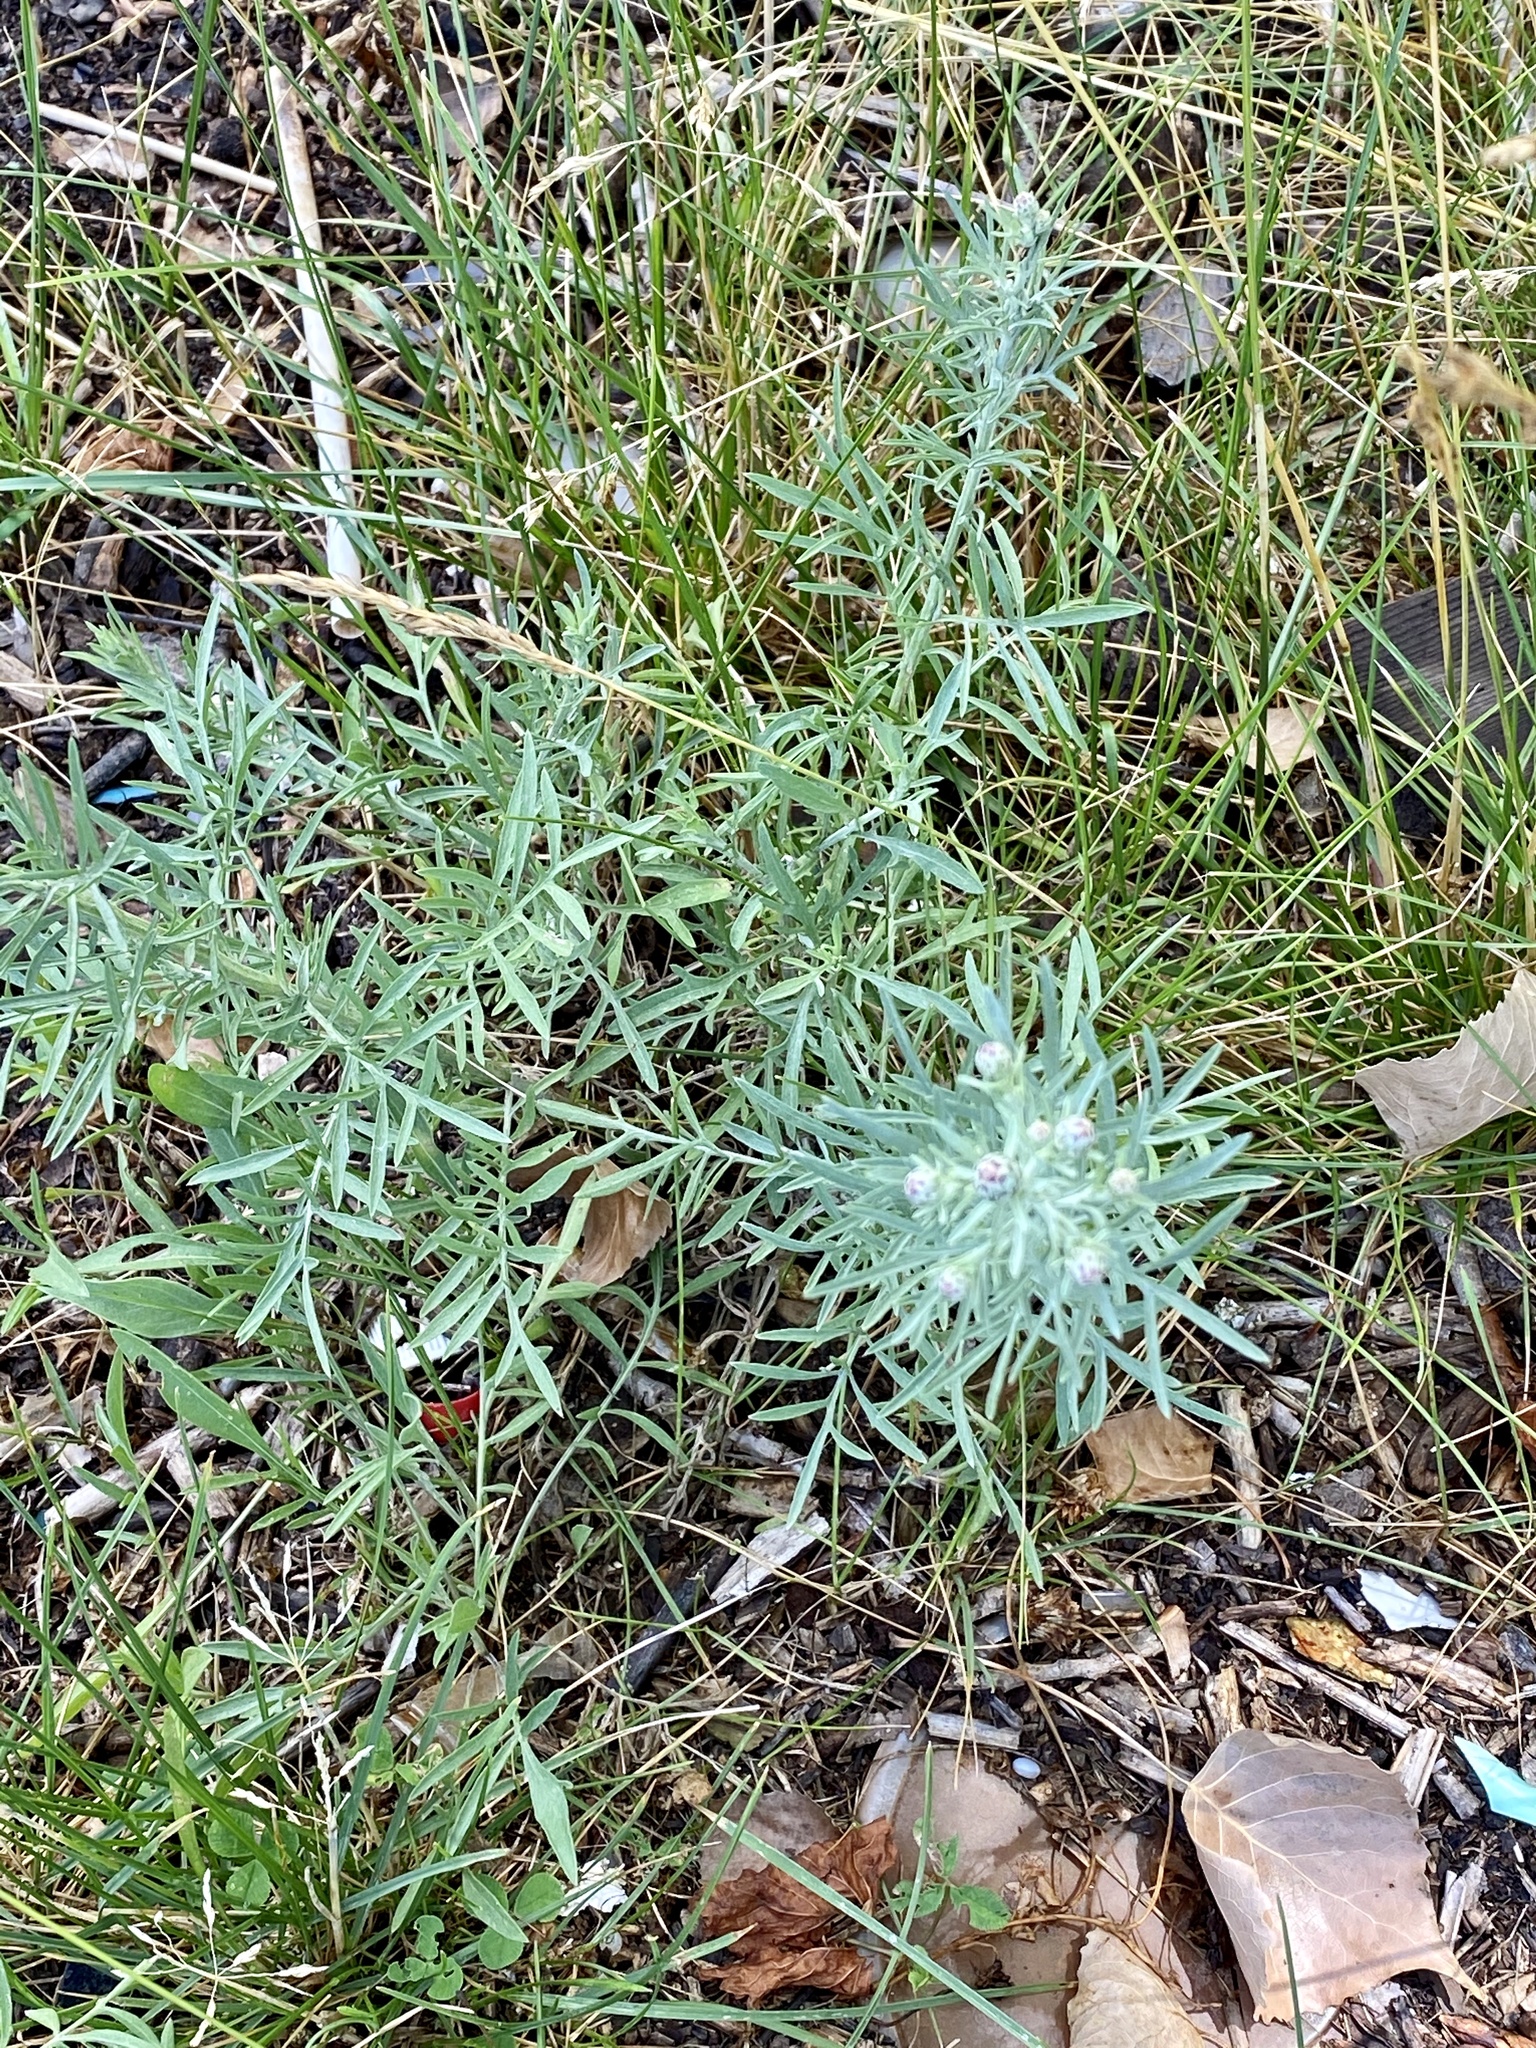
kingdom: Plantae
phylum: Tracheophyta
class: Magnoliopsida
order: Asterales
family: Asteraceae
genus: Centaurea
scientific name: Centaurea stoebe
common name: Spotted knapweed
